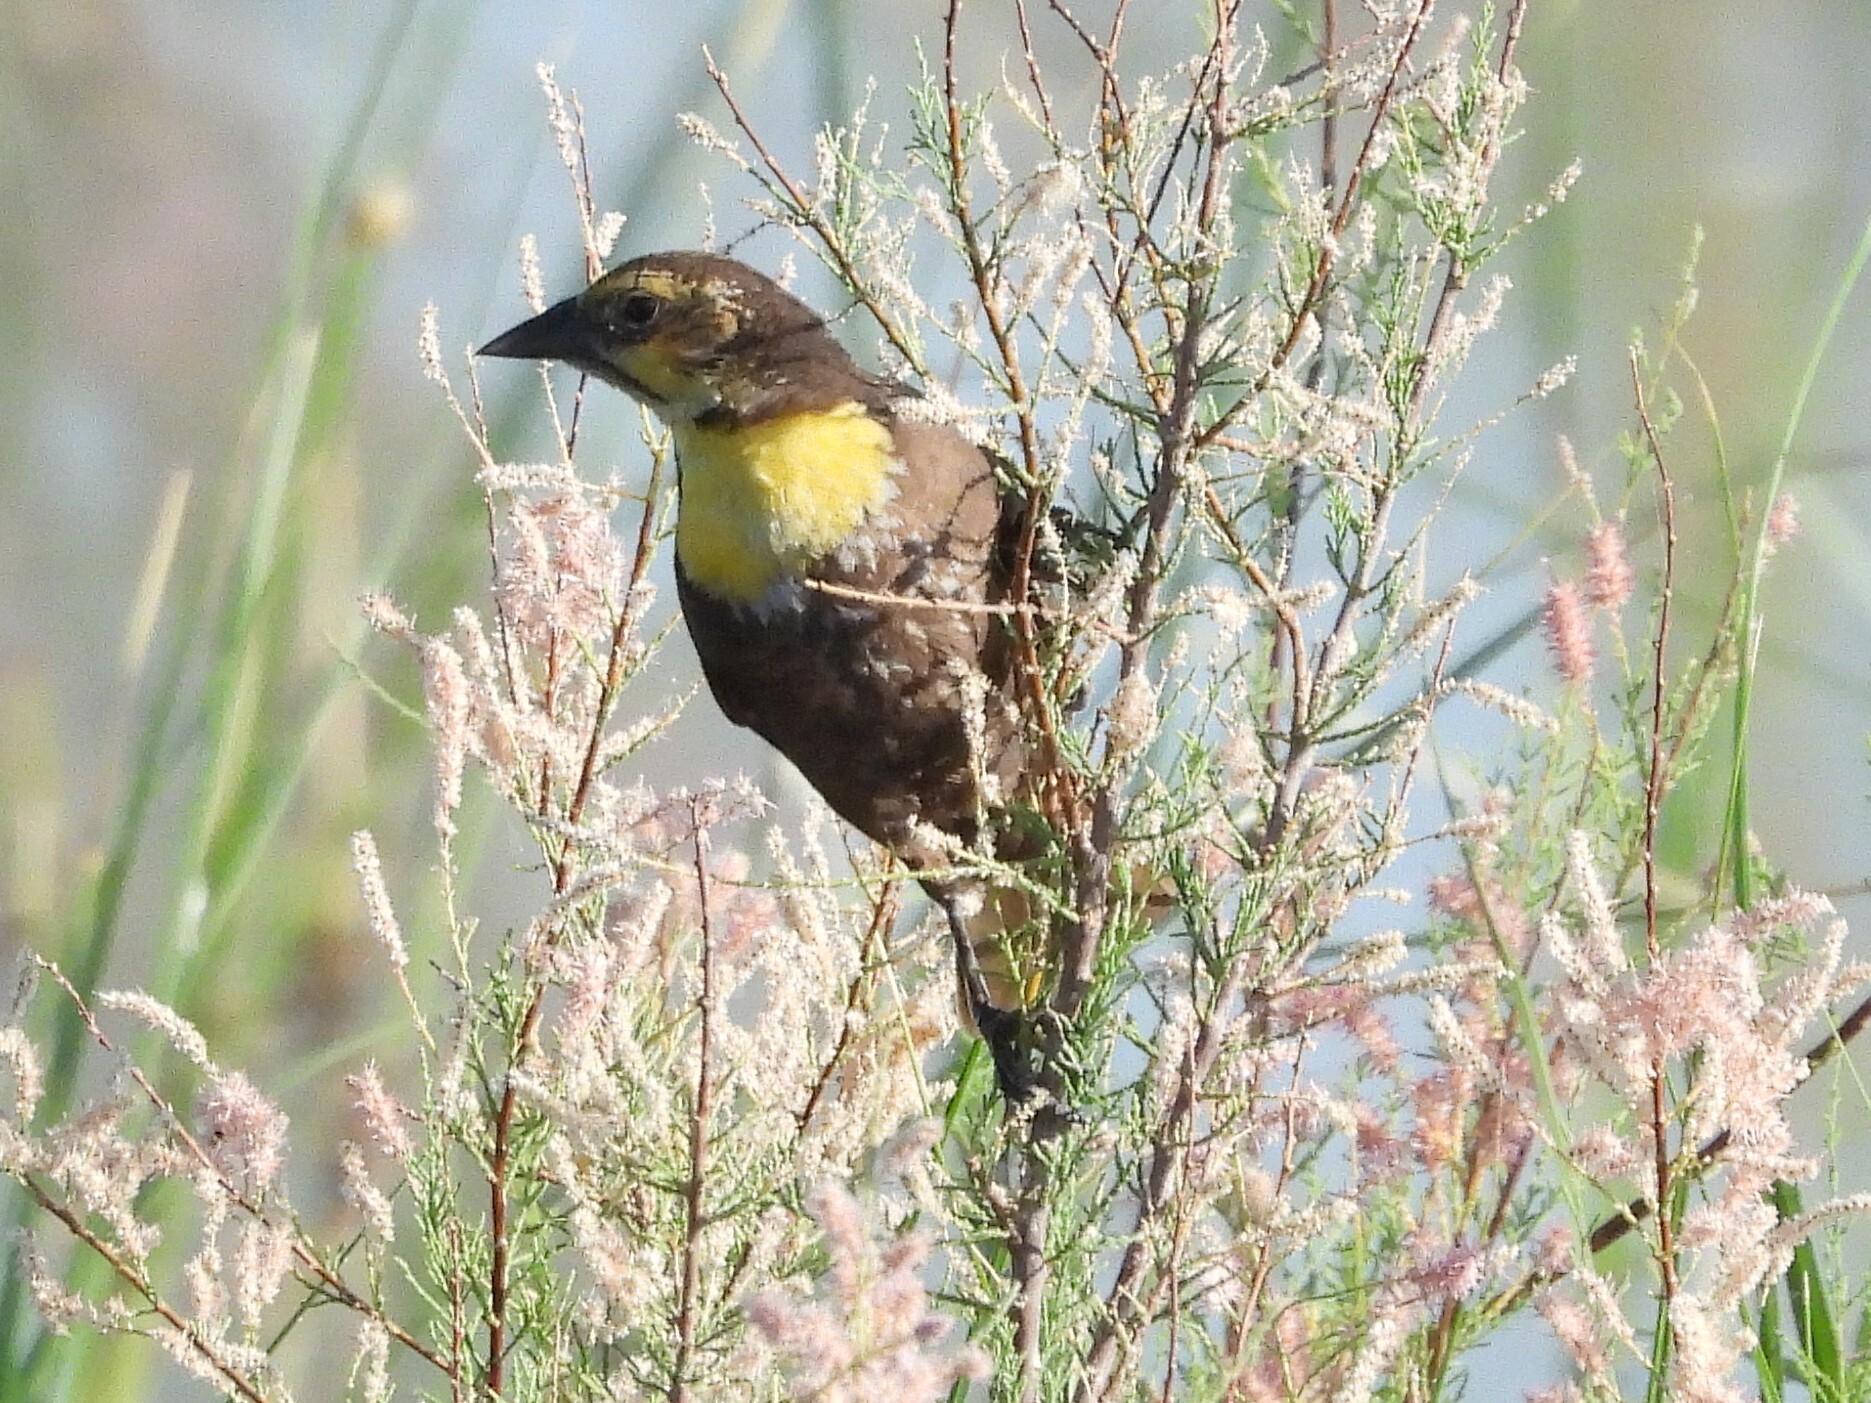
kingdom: Animalia
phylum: Chordata
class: Aves
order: Passeriformes
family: Icteridae
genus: Xanthocephalus
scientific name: Xanthocephalus xanthocephalus
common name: Yellow-headed blackbird
